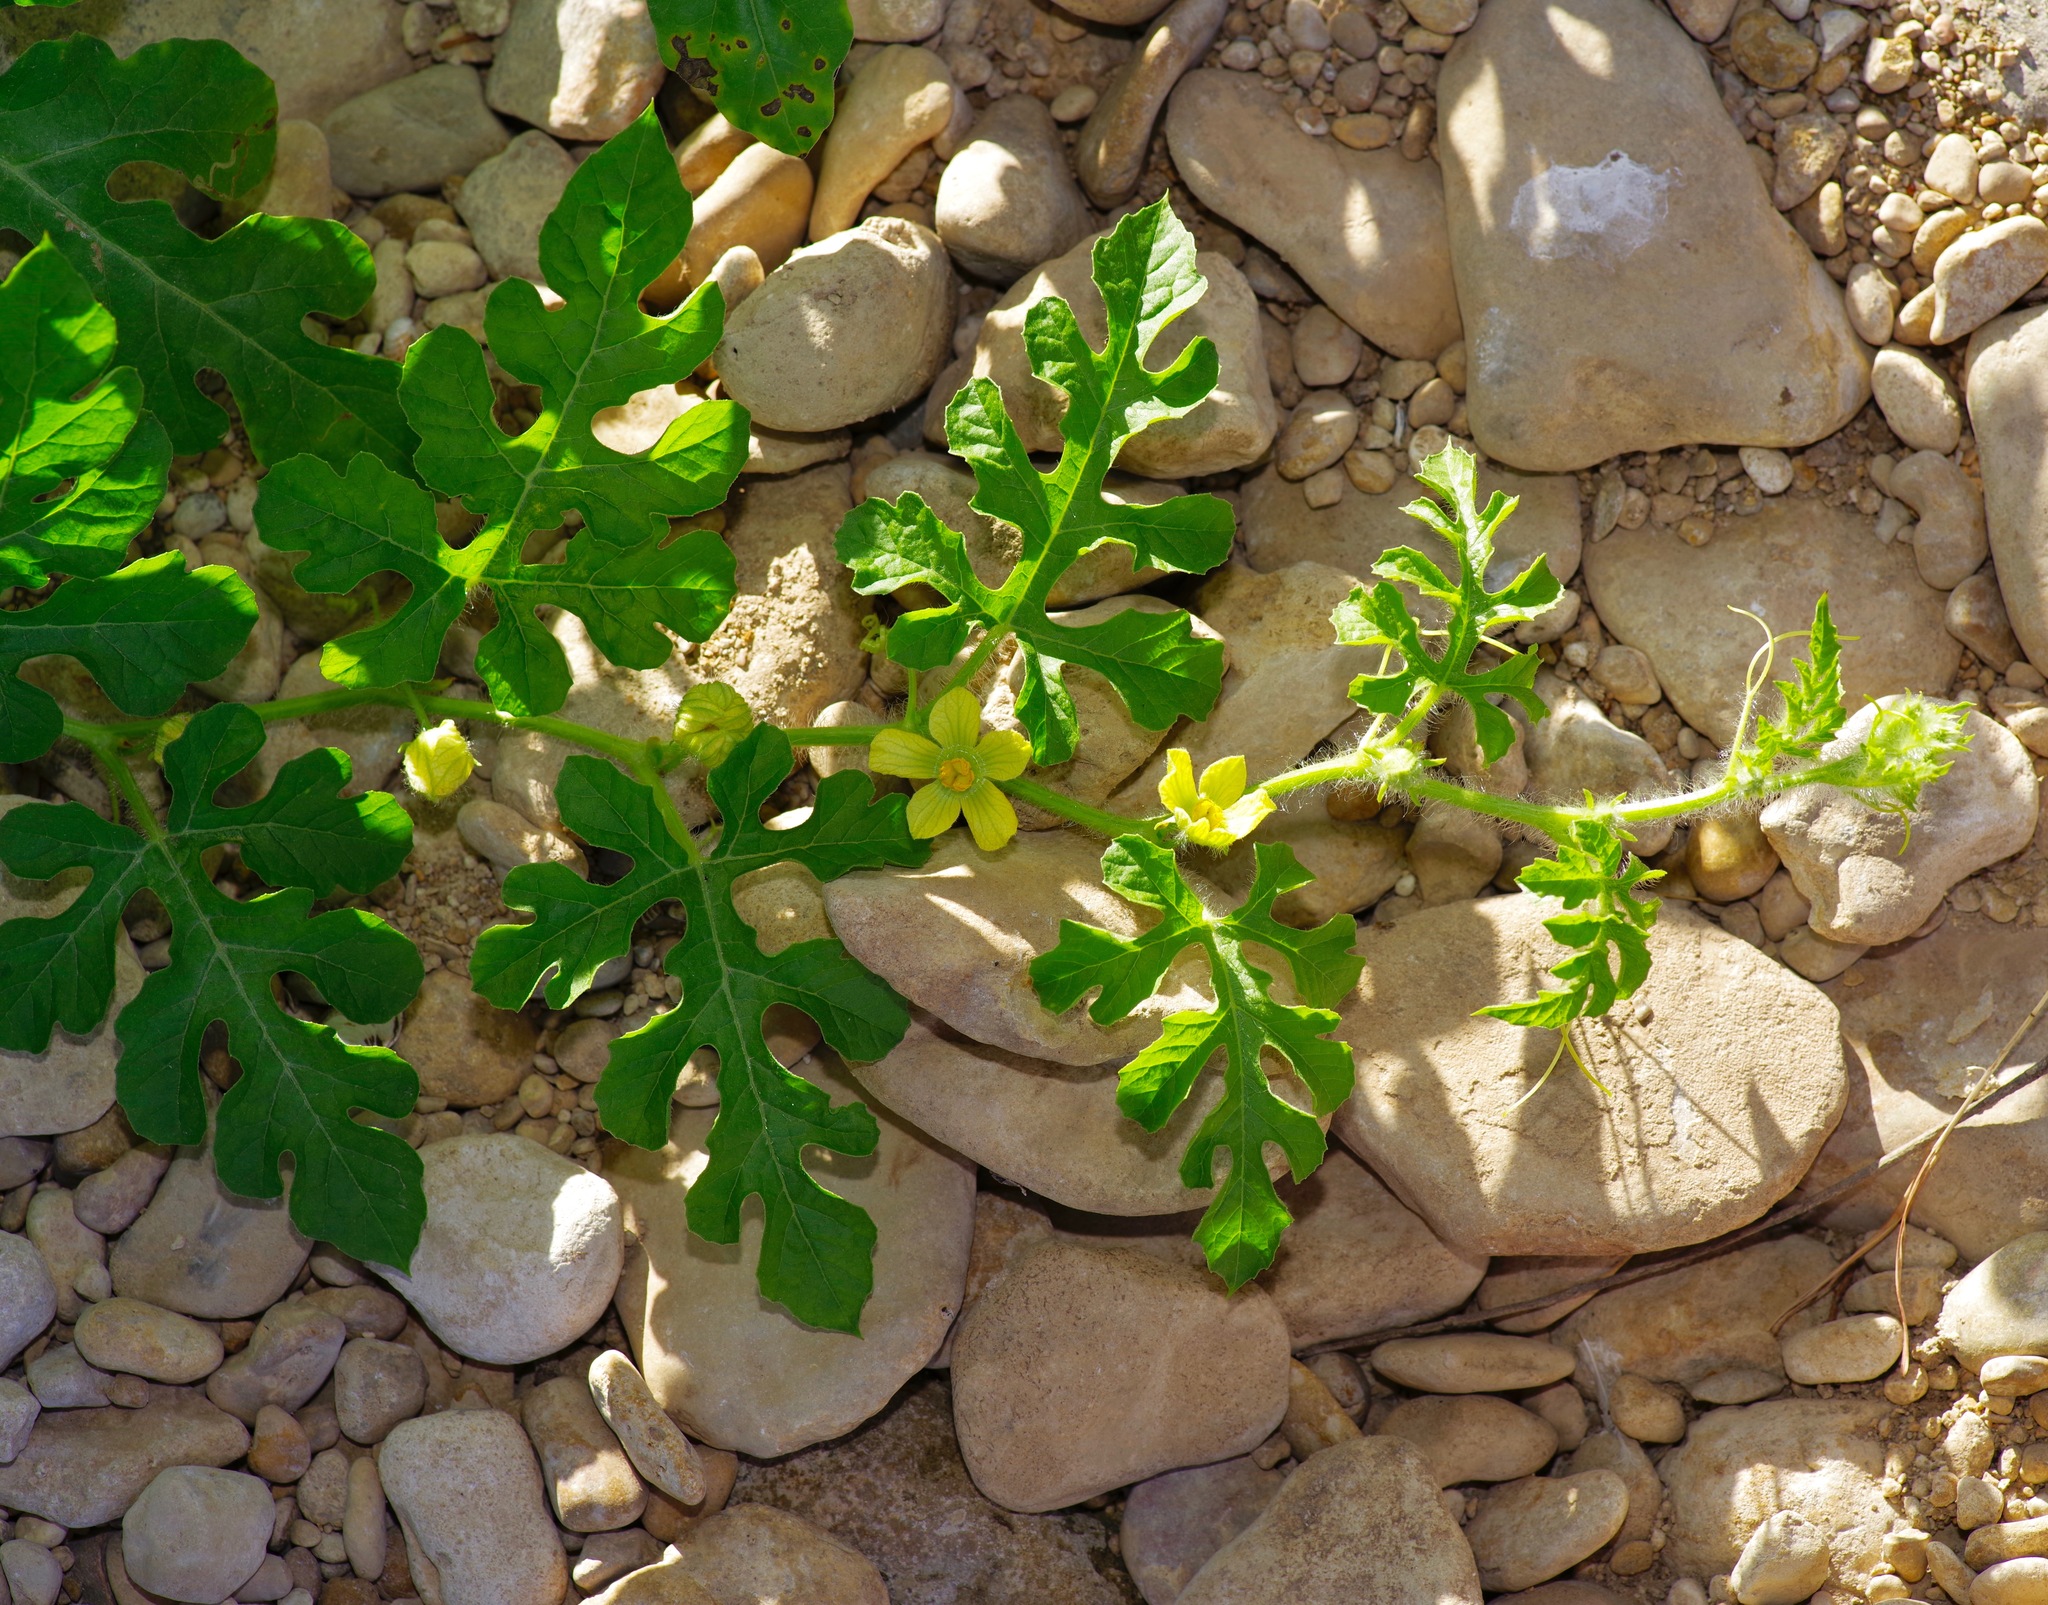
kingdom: Plantae
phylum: Tracheophyta
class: Magnoliopsida
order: Cucurbitales
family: Cucurbitaceae
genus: Citrullus
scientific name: Citrullus amarus
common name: Fodder-melon
